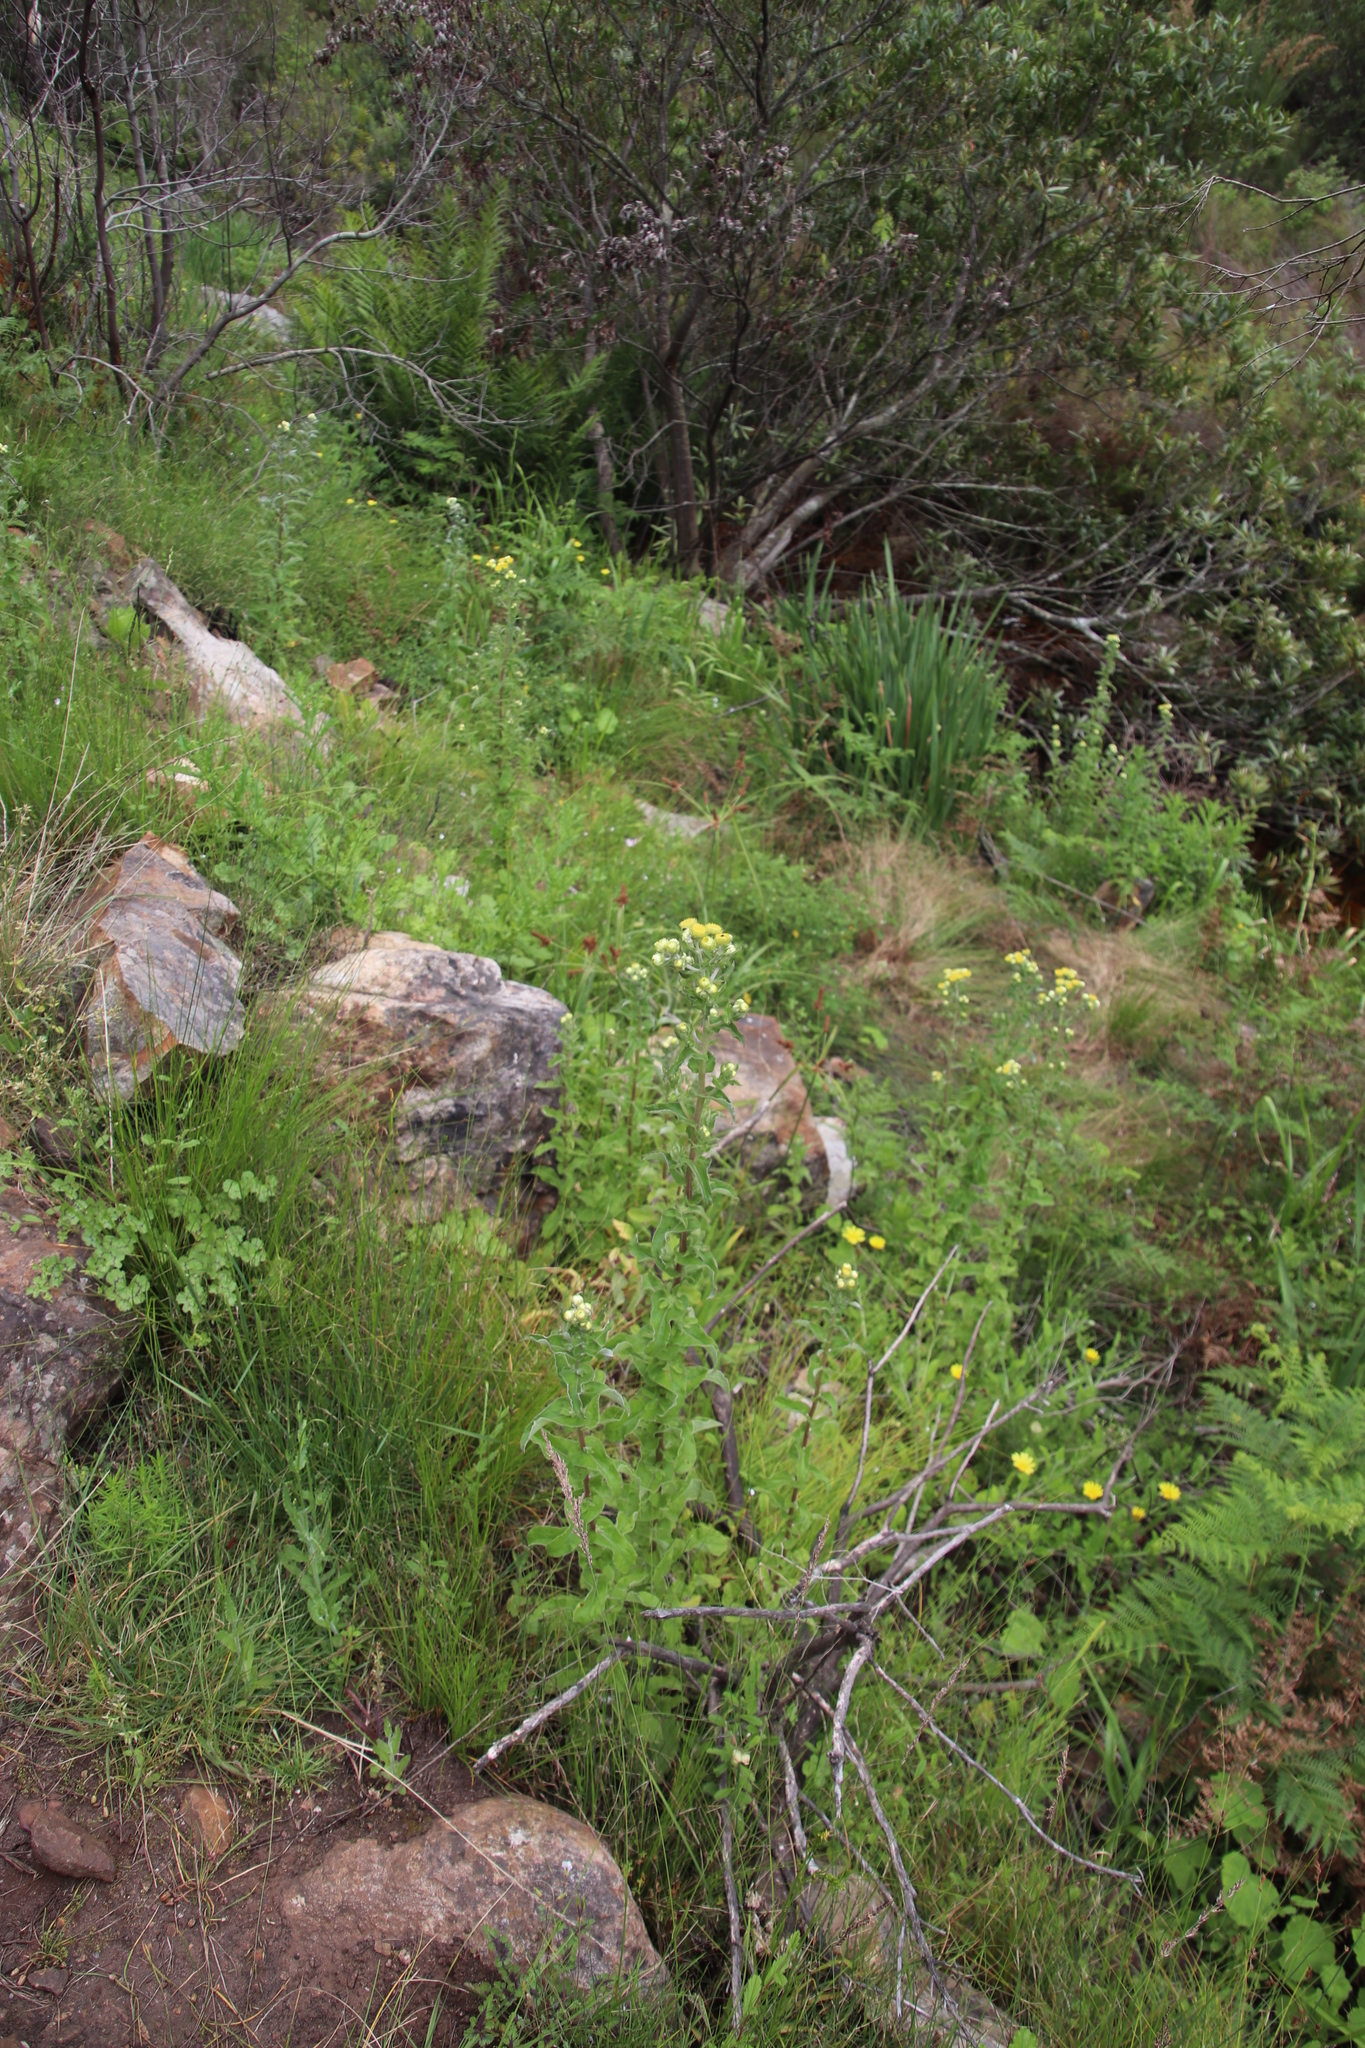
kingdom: Plantae
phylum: Tracheophyta
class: Magnoliopsida
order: Asterales
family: Asteraceae
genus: Helichrysum
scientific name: Helichrysum foetidum
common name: Stinking everlasting
